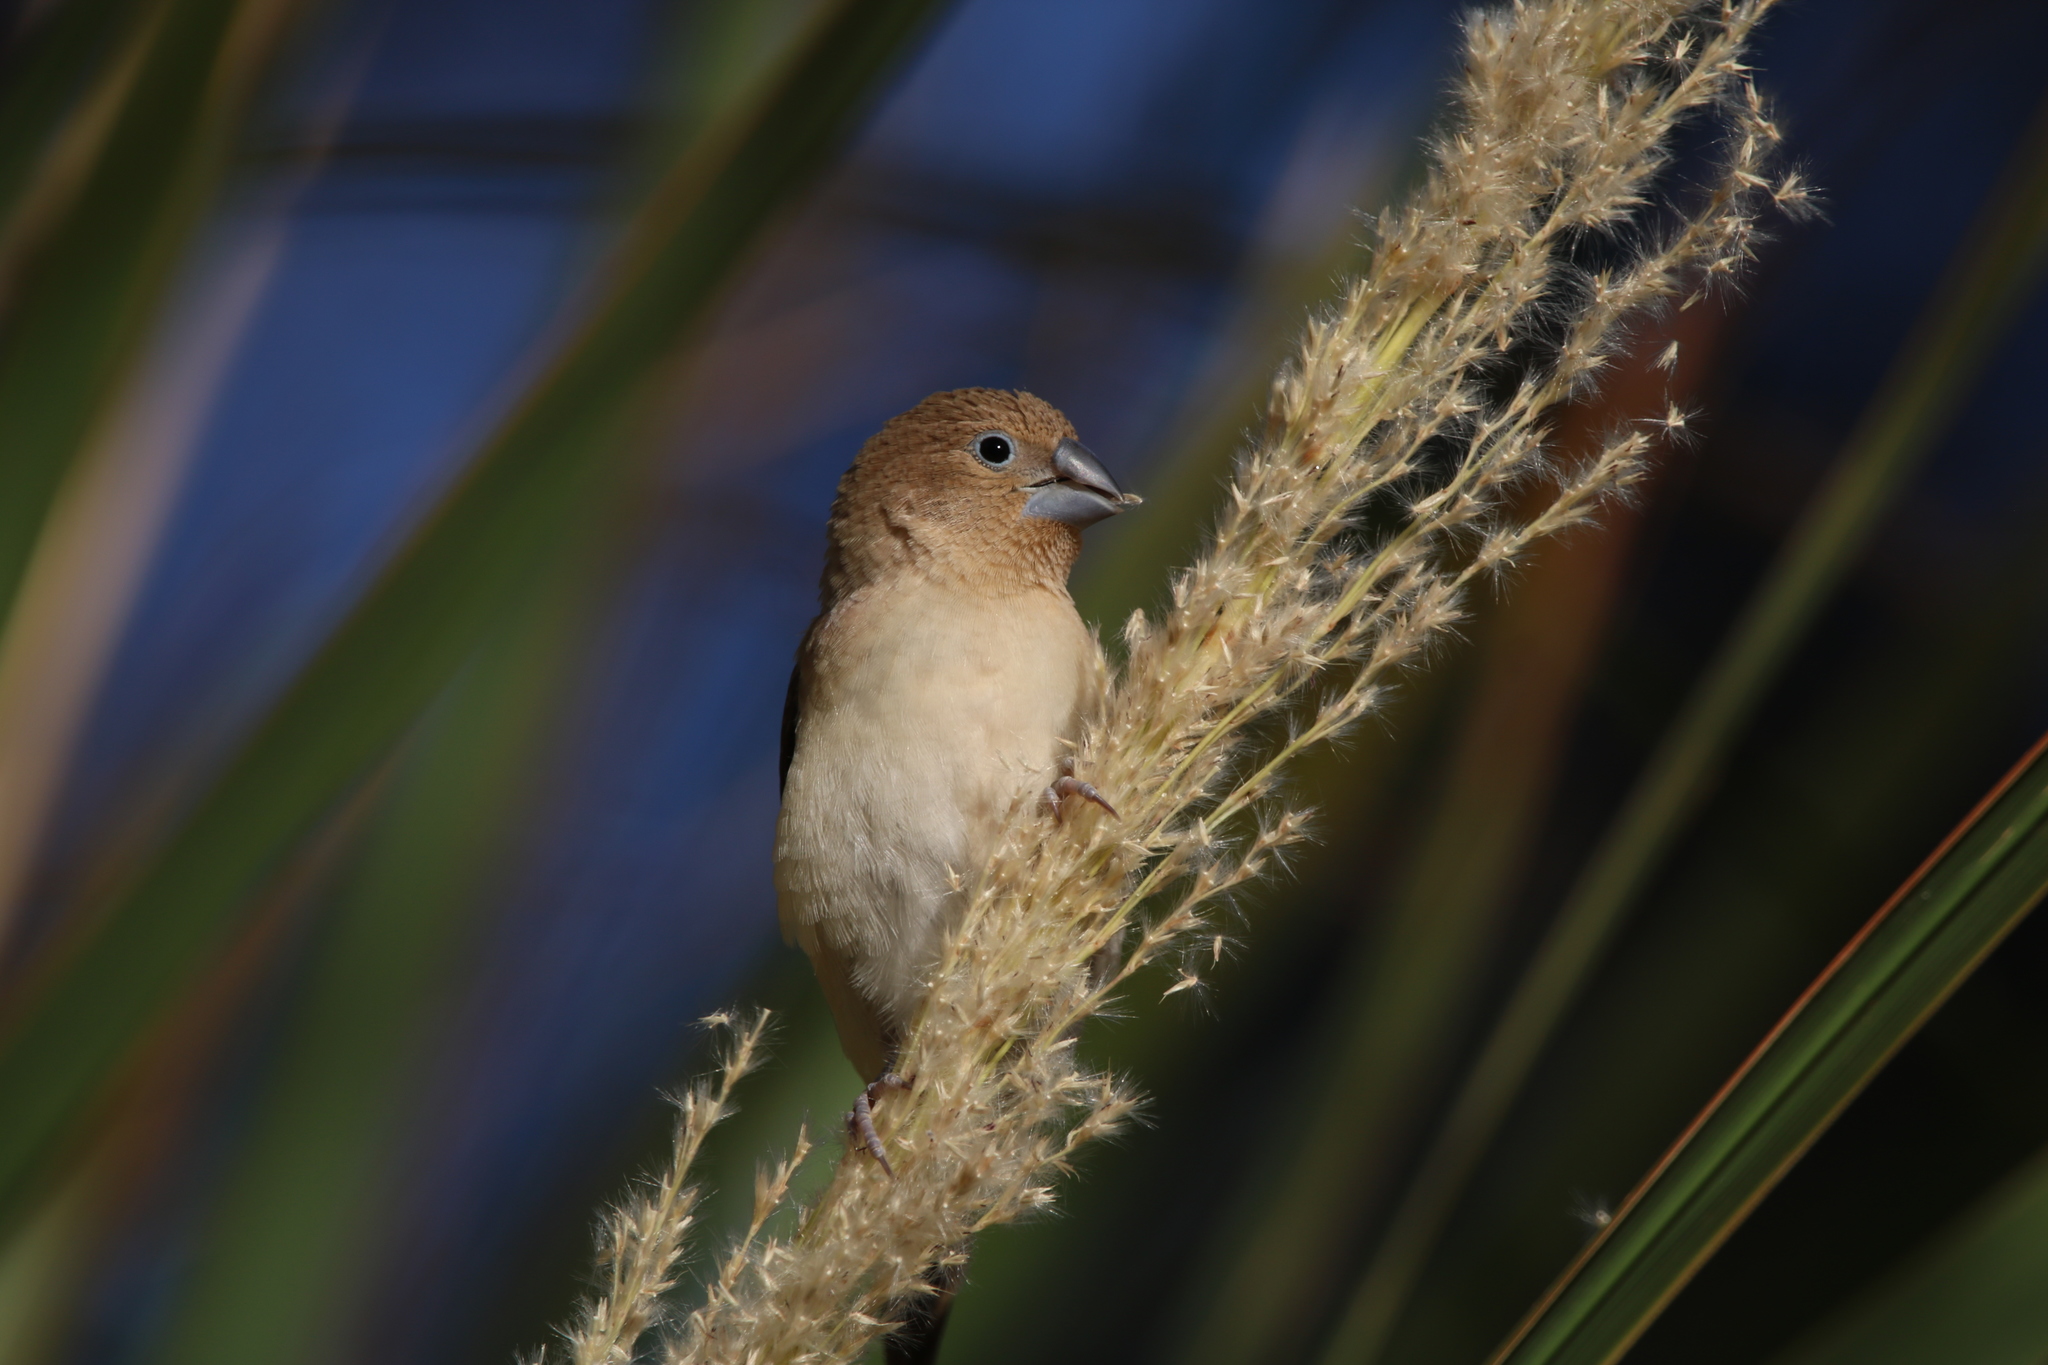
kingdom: Animalia
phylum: Chordata
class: Aves
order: Passeriformes
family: Estrildidae
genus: Euodice
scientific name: Euodice cantans
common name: African silverbill
